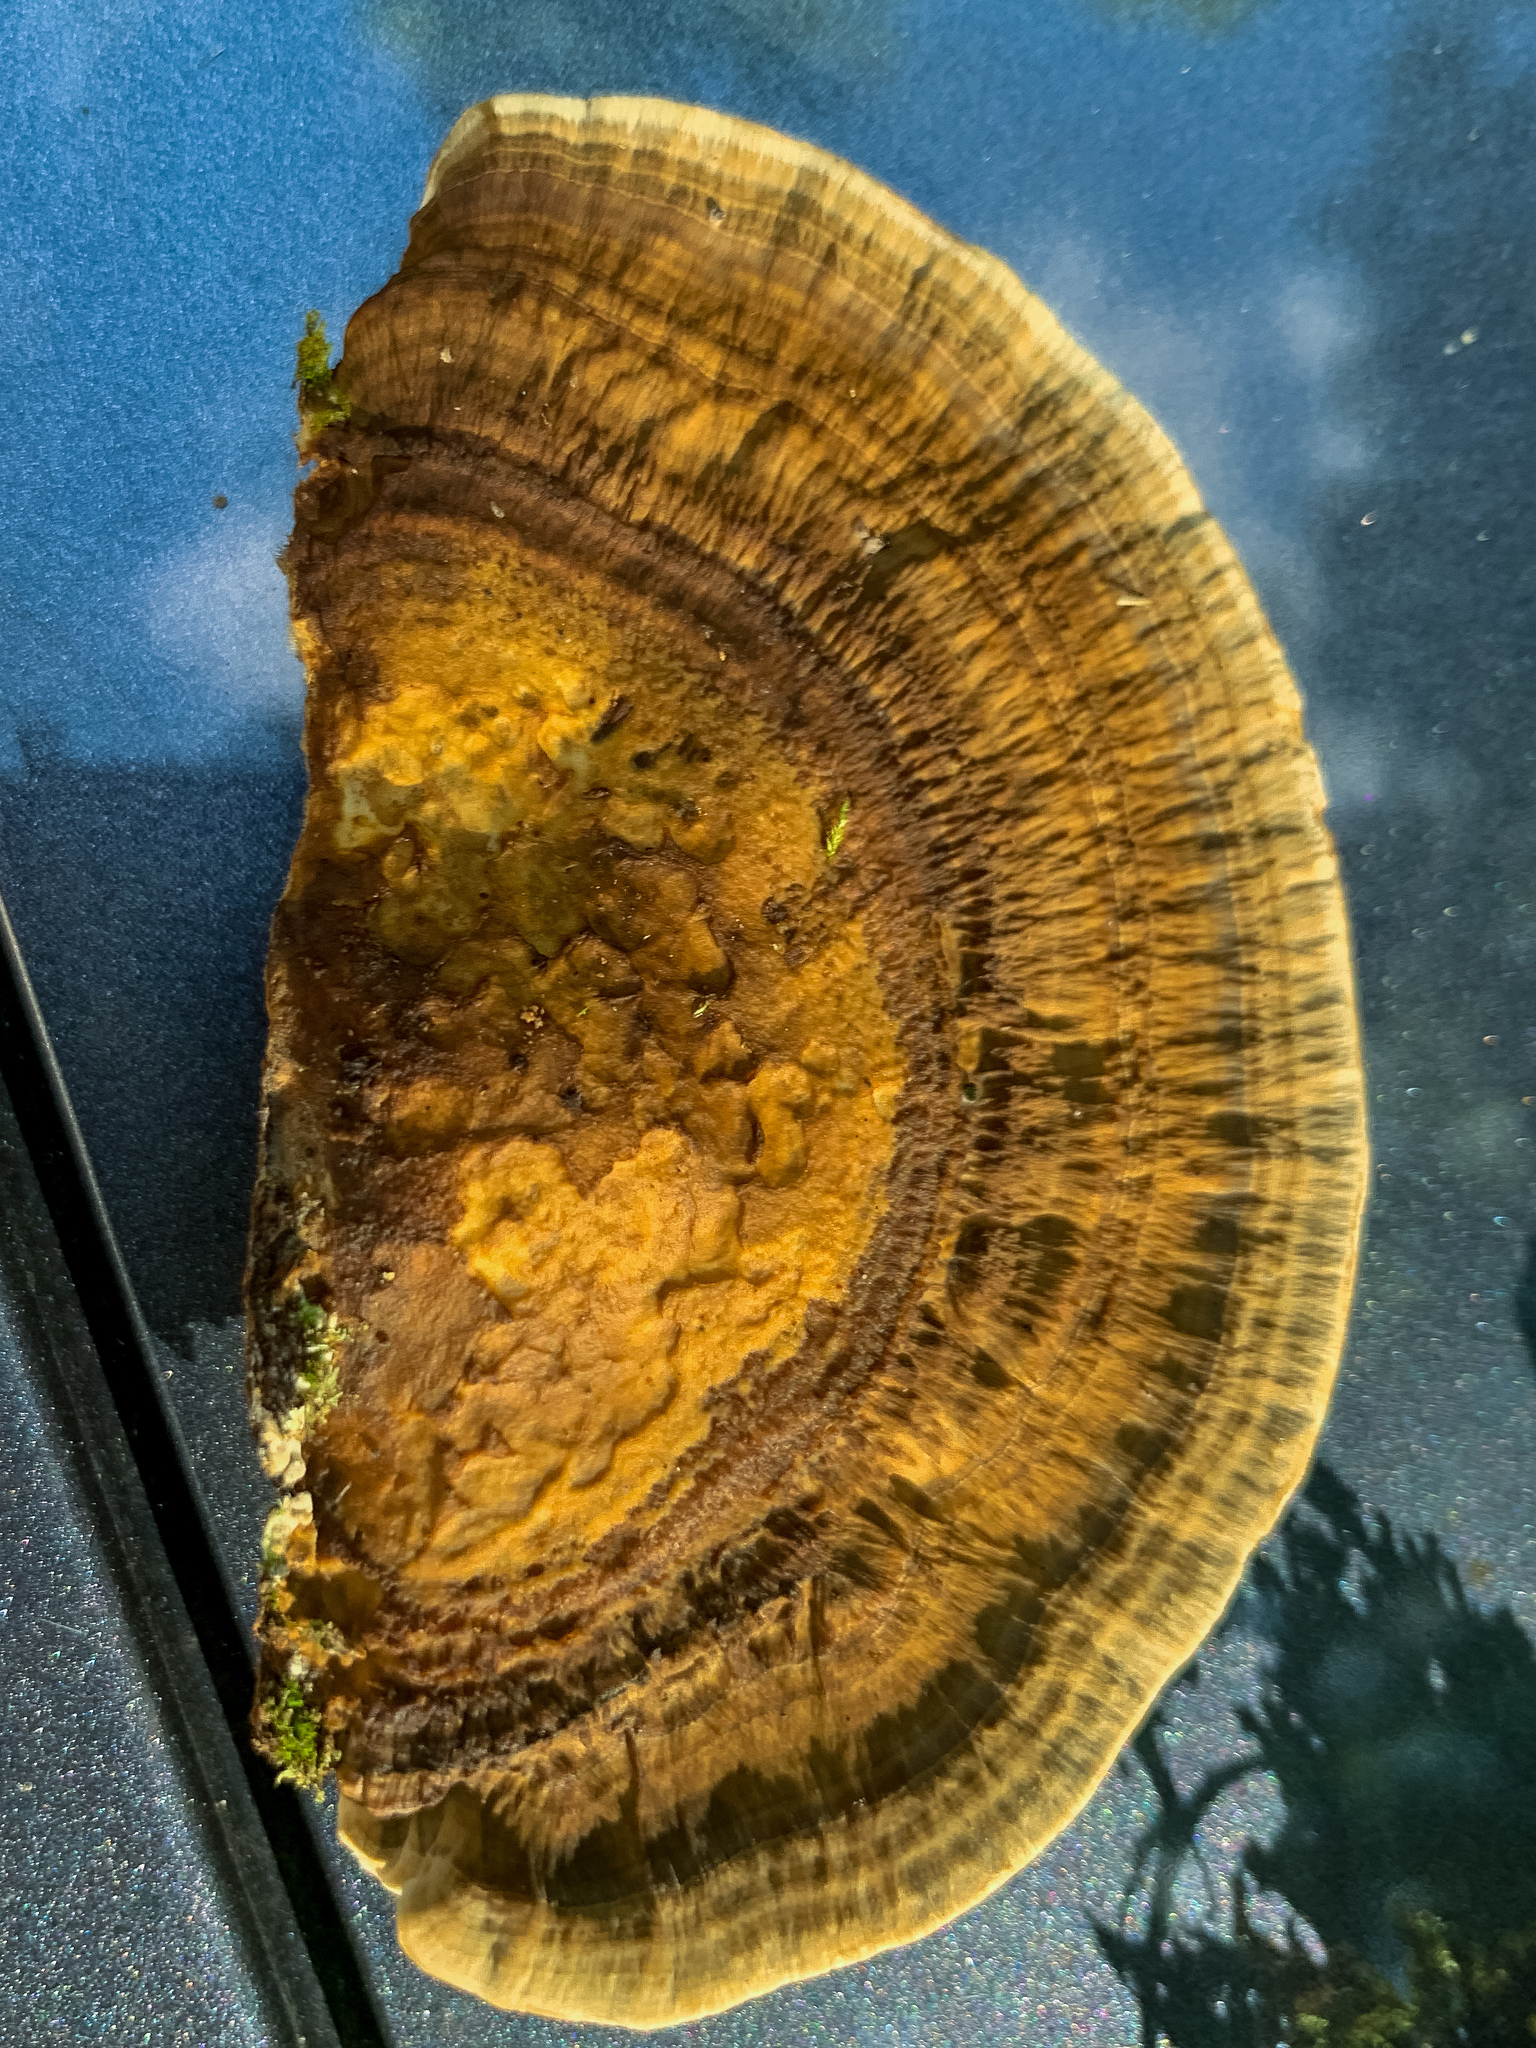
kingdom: Fungi
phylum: Basidiomycota
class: Agaricomycetes
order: Polyporales
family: Polyporaceae
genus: Daedaleopsis
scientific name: Daedaleopsis confragosa
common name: Blushing bracket
